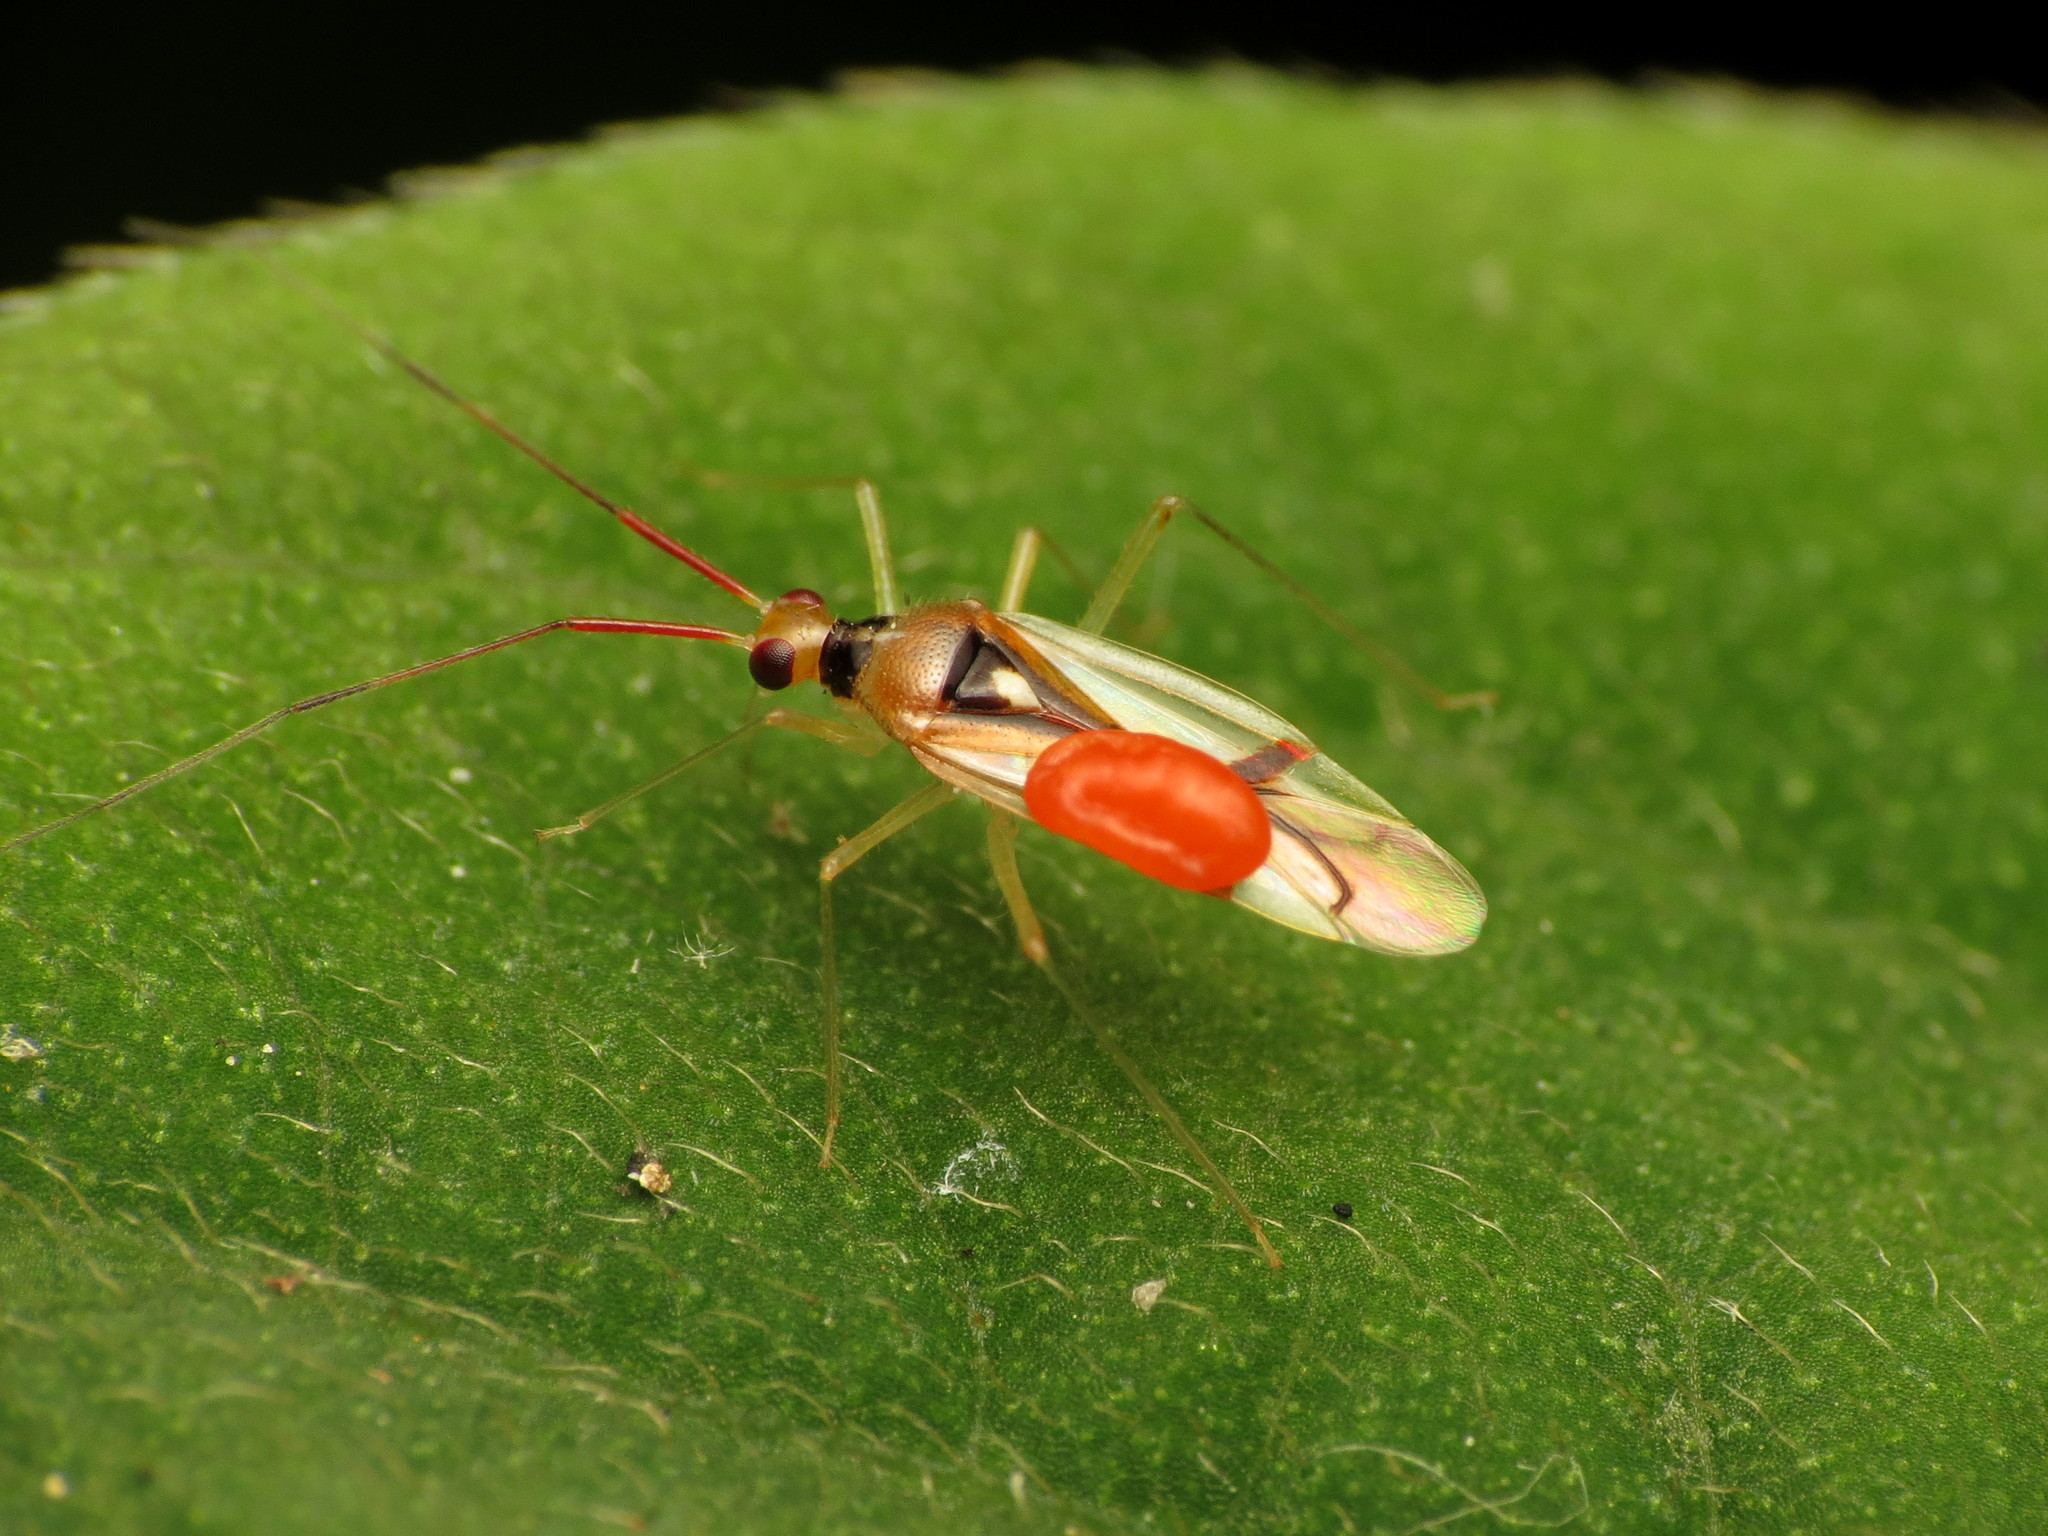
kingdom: Animalia
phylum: Arthropoda
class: Insecta
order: Hemiptera
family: Miridae
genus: Hyaliodes
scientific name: Hyaliodes harti
